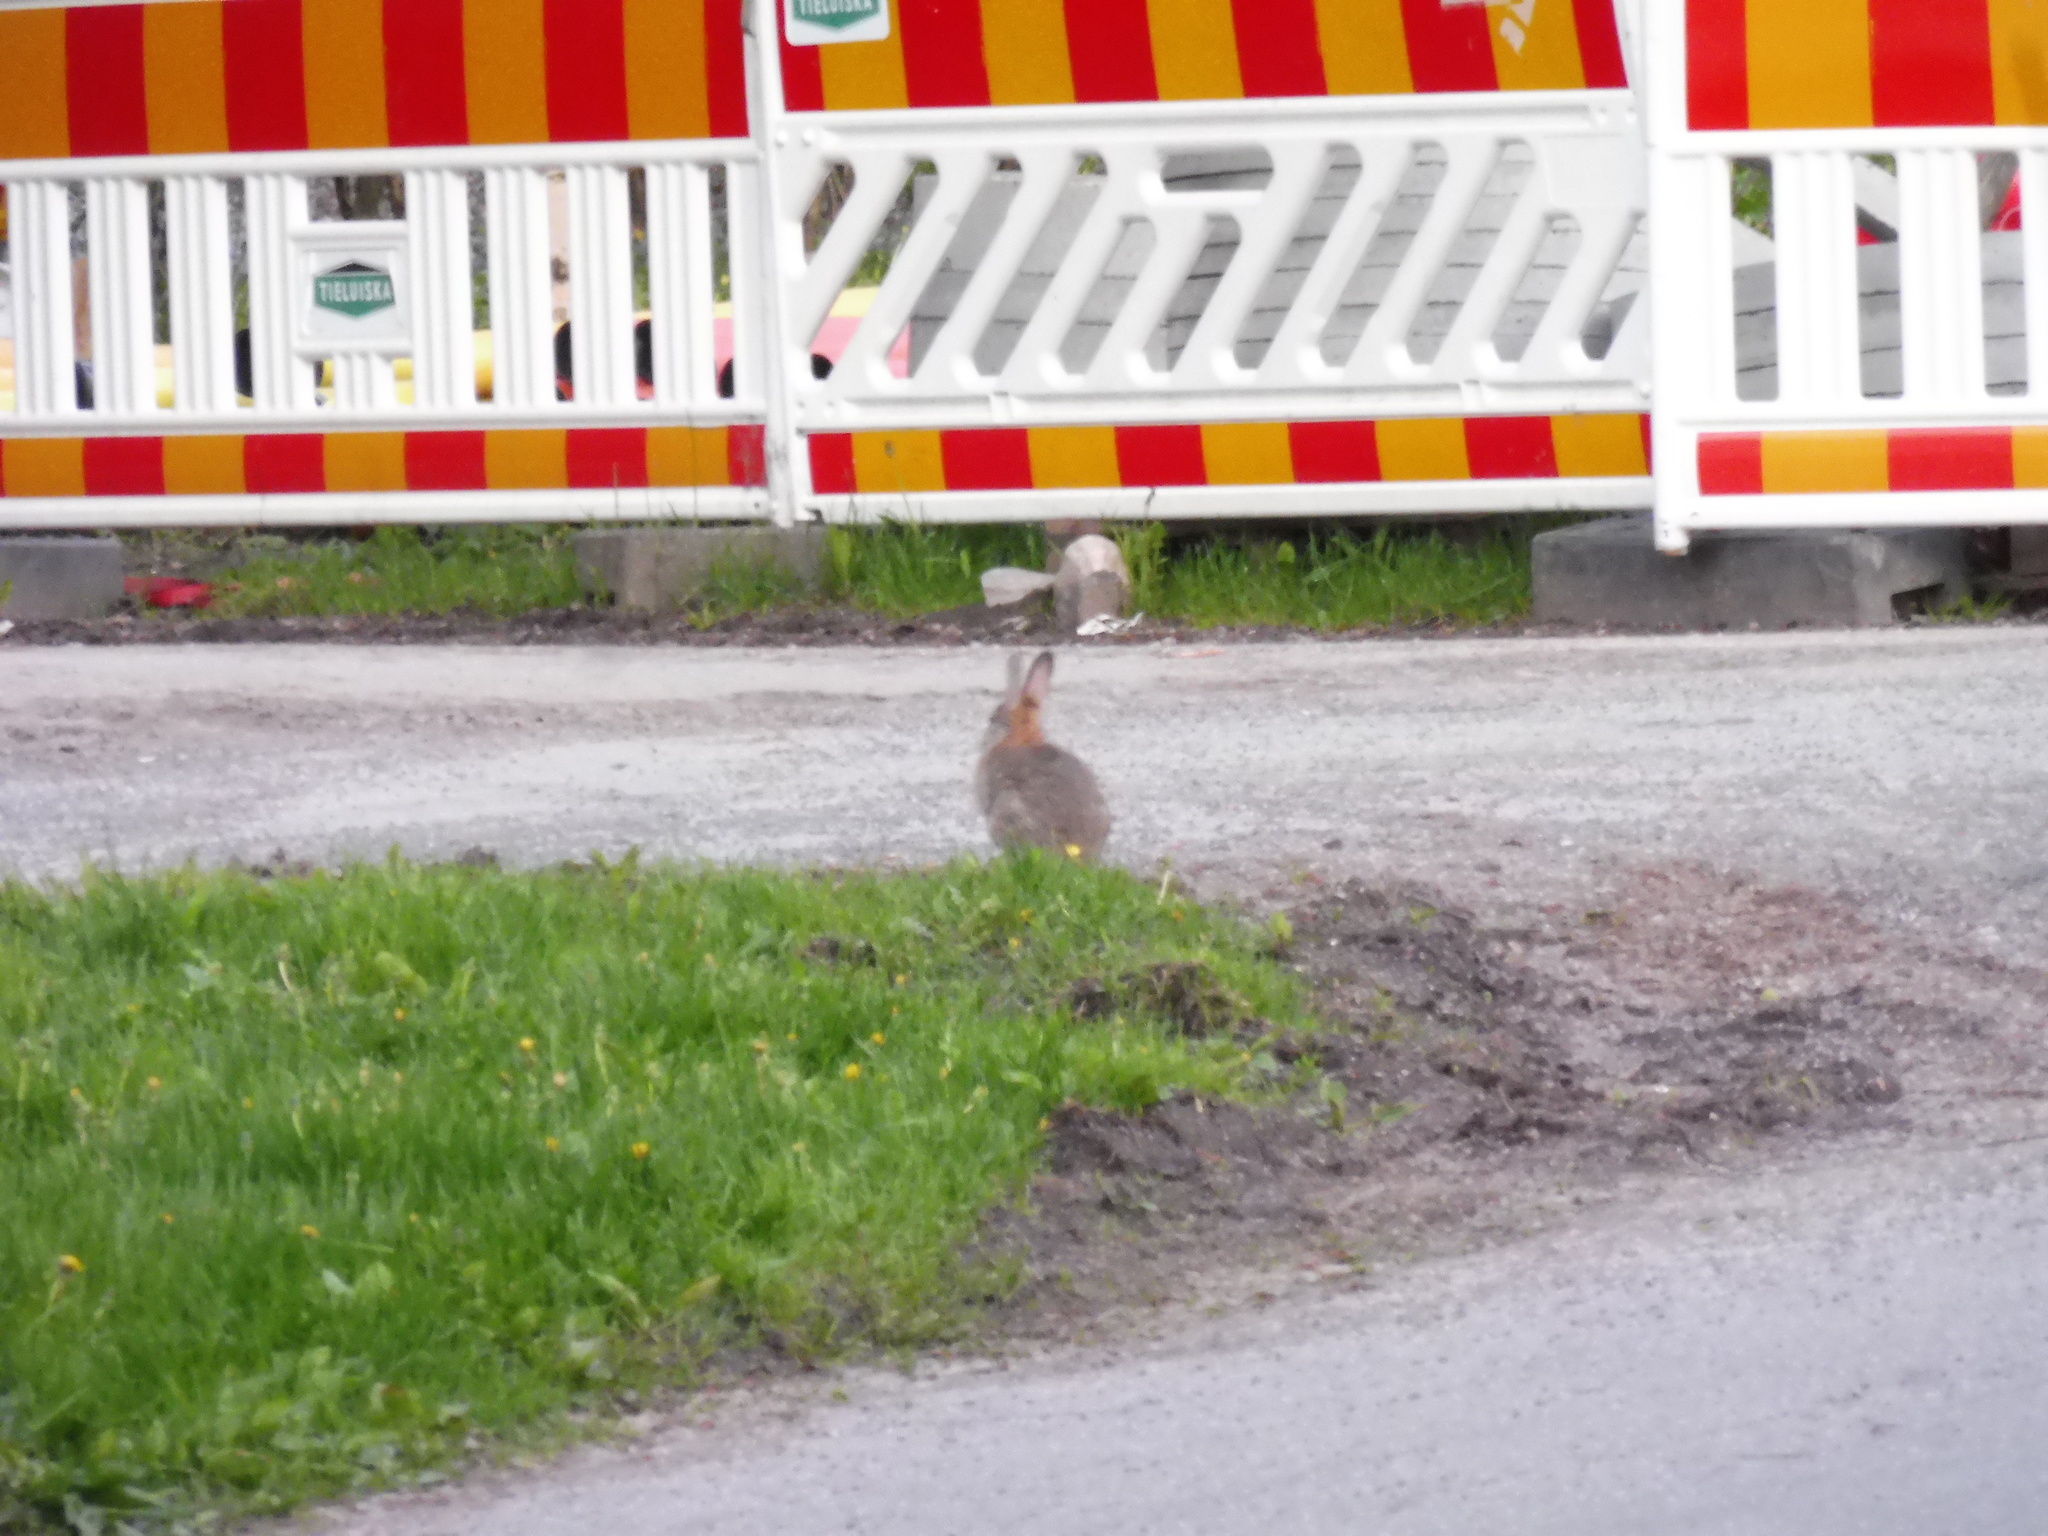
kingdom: Animalia
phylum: Chordata
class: Mammalia
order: Lagomorpha
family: Leporidae
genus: Oryctolagus
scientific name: Oryctolagus cuniculus
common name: European rabbit
